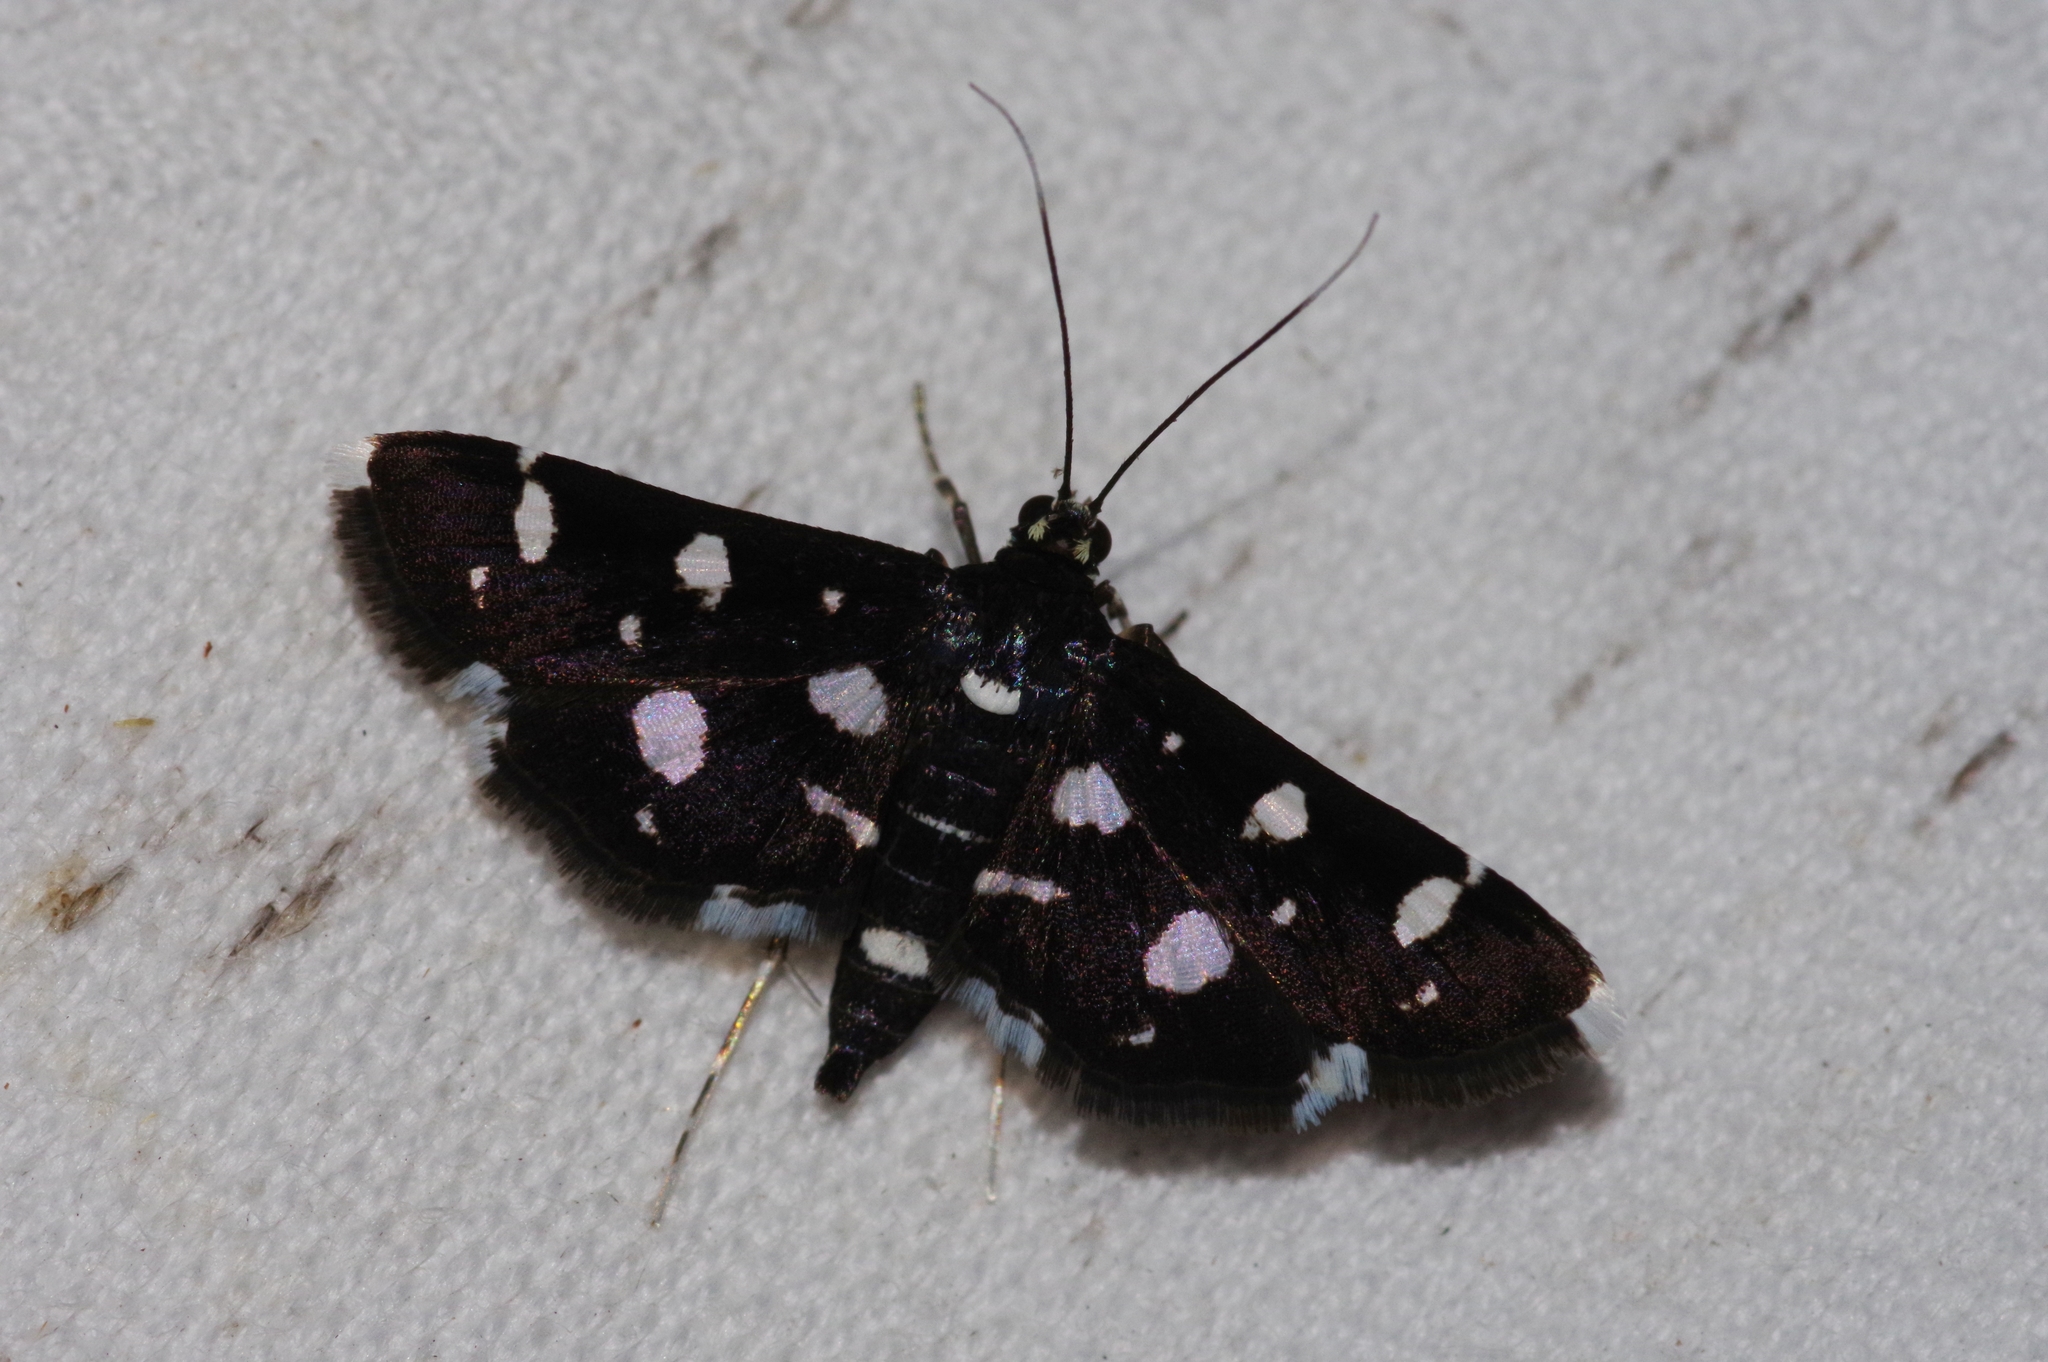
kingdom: Animalia
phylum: Arthropoda
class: Insecta
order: Lepidoptera
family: Crambidae
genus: Bocchoris
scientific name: Bocchoris inspersalis
